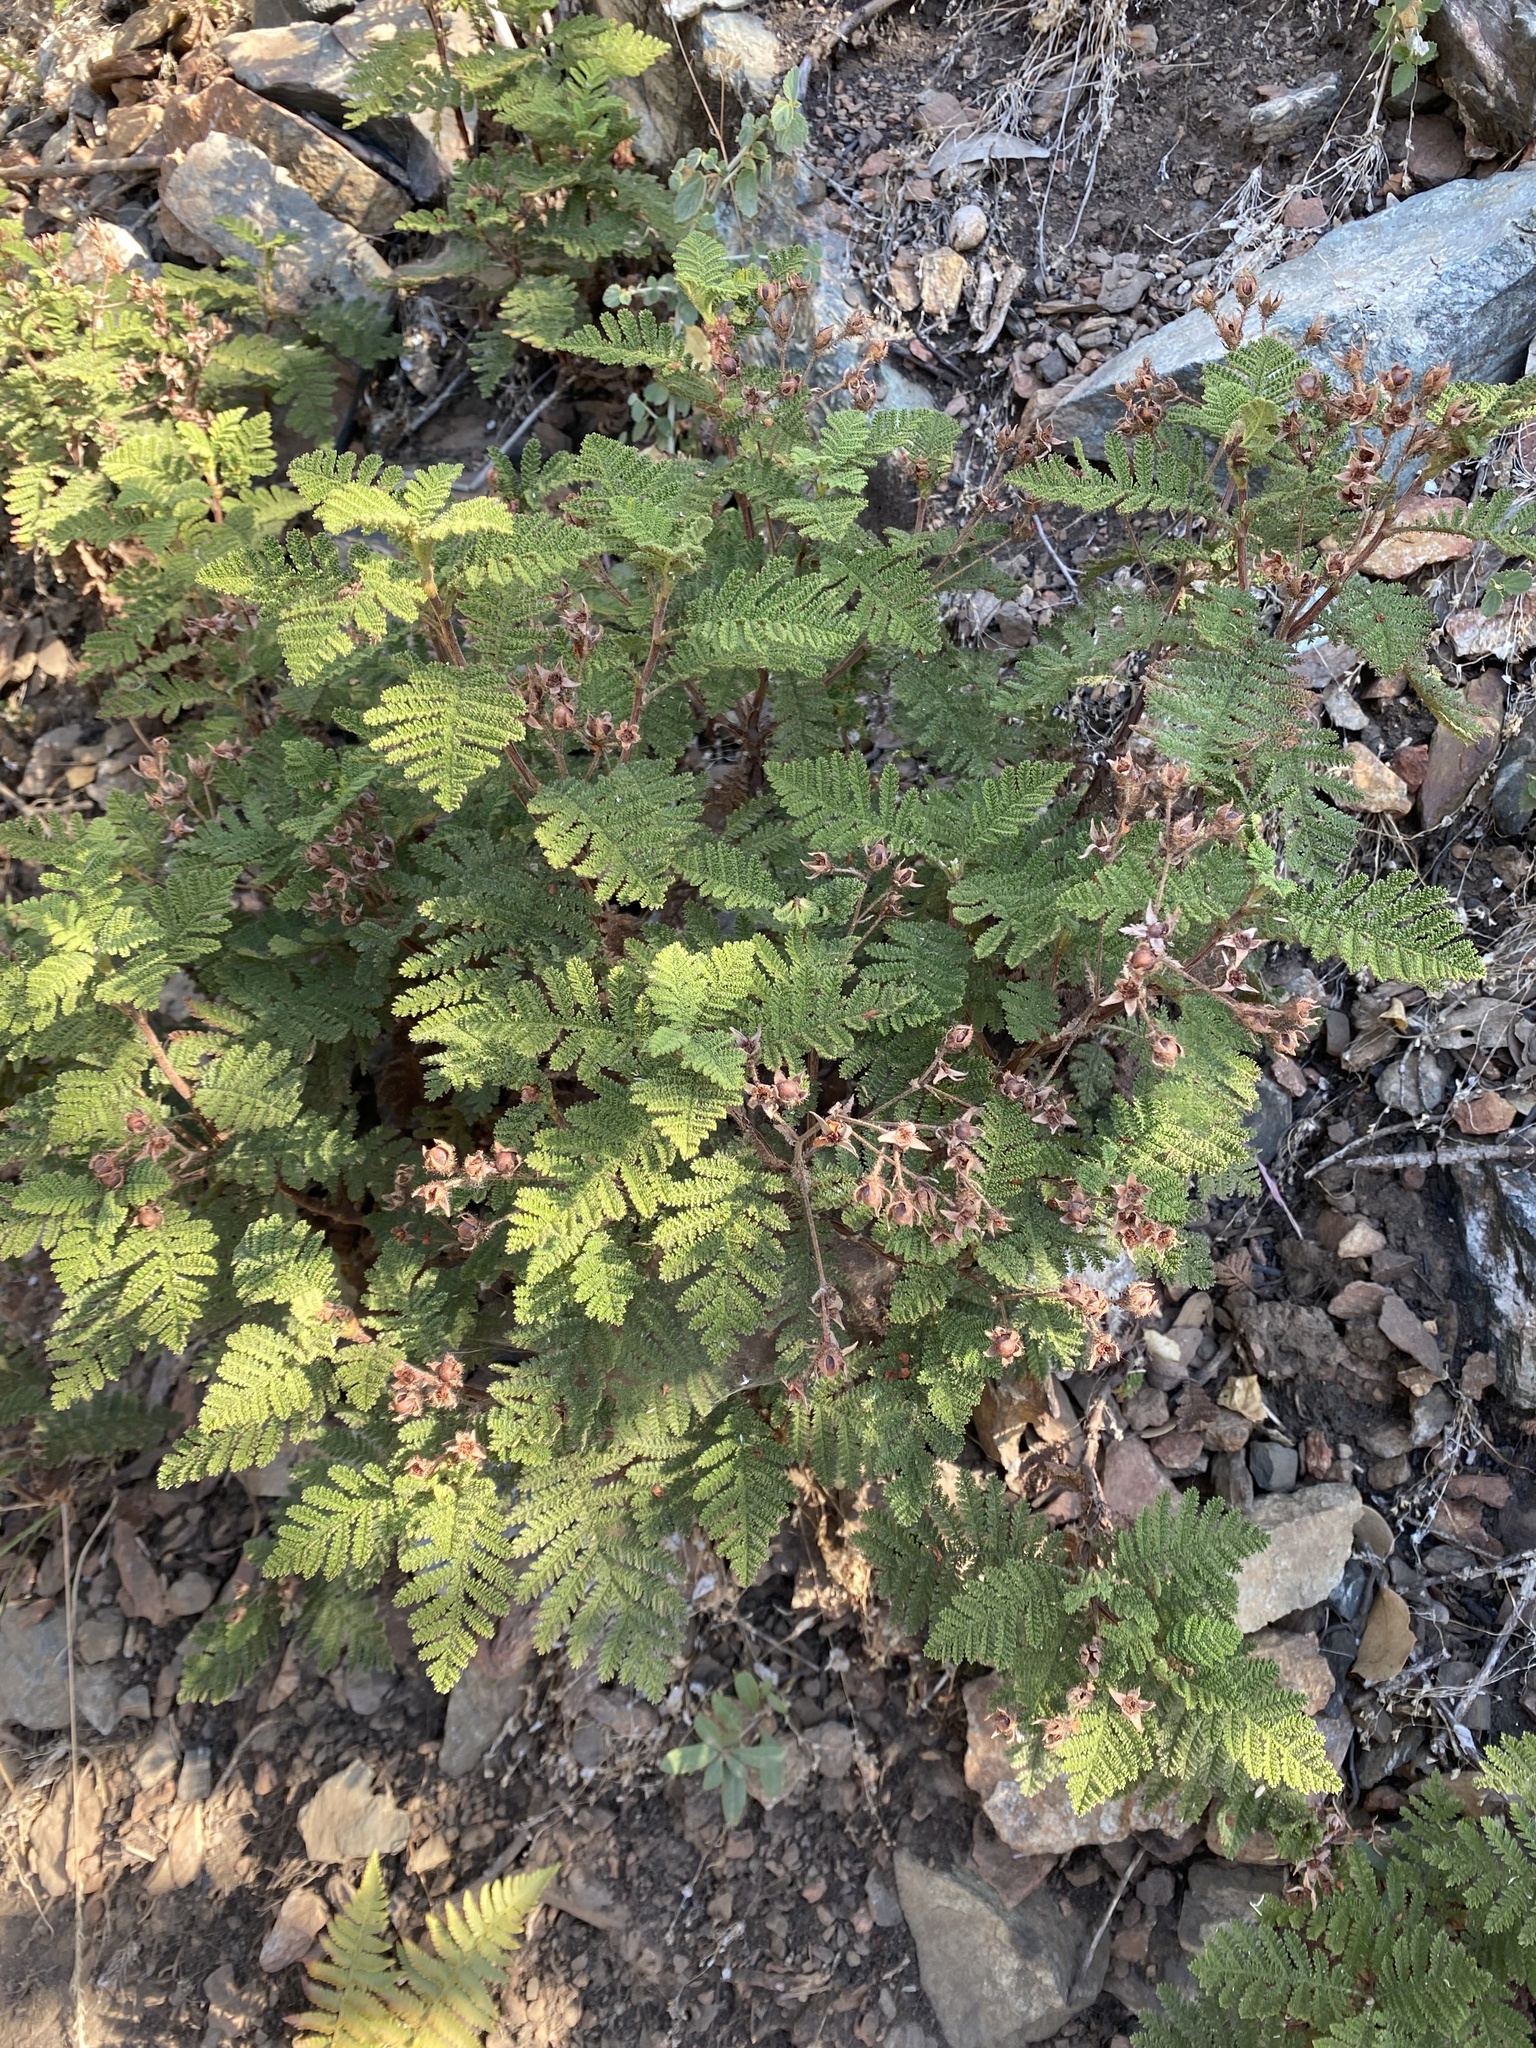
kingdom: Plantae
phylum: Tracheophyta
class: Magnoliopsida
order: Rosales
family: Rosaceae
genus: Chamaebatia
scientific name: Chamaebatia foliolosa
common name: Mountain misery
